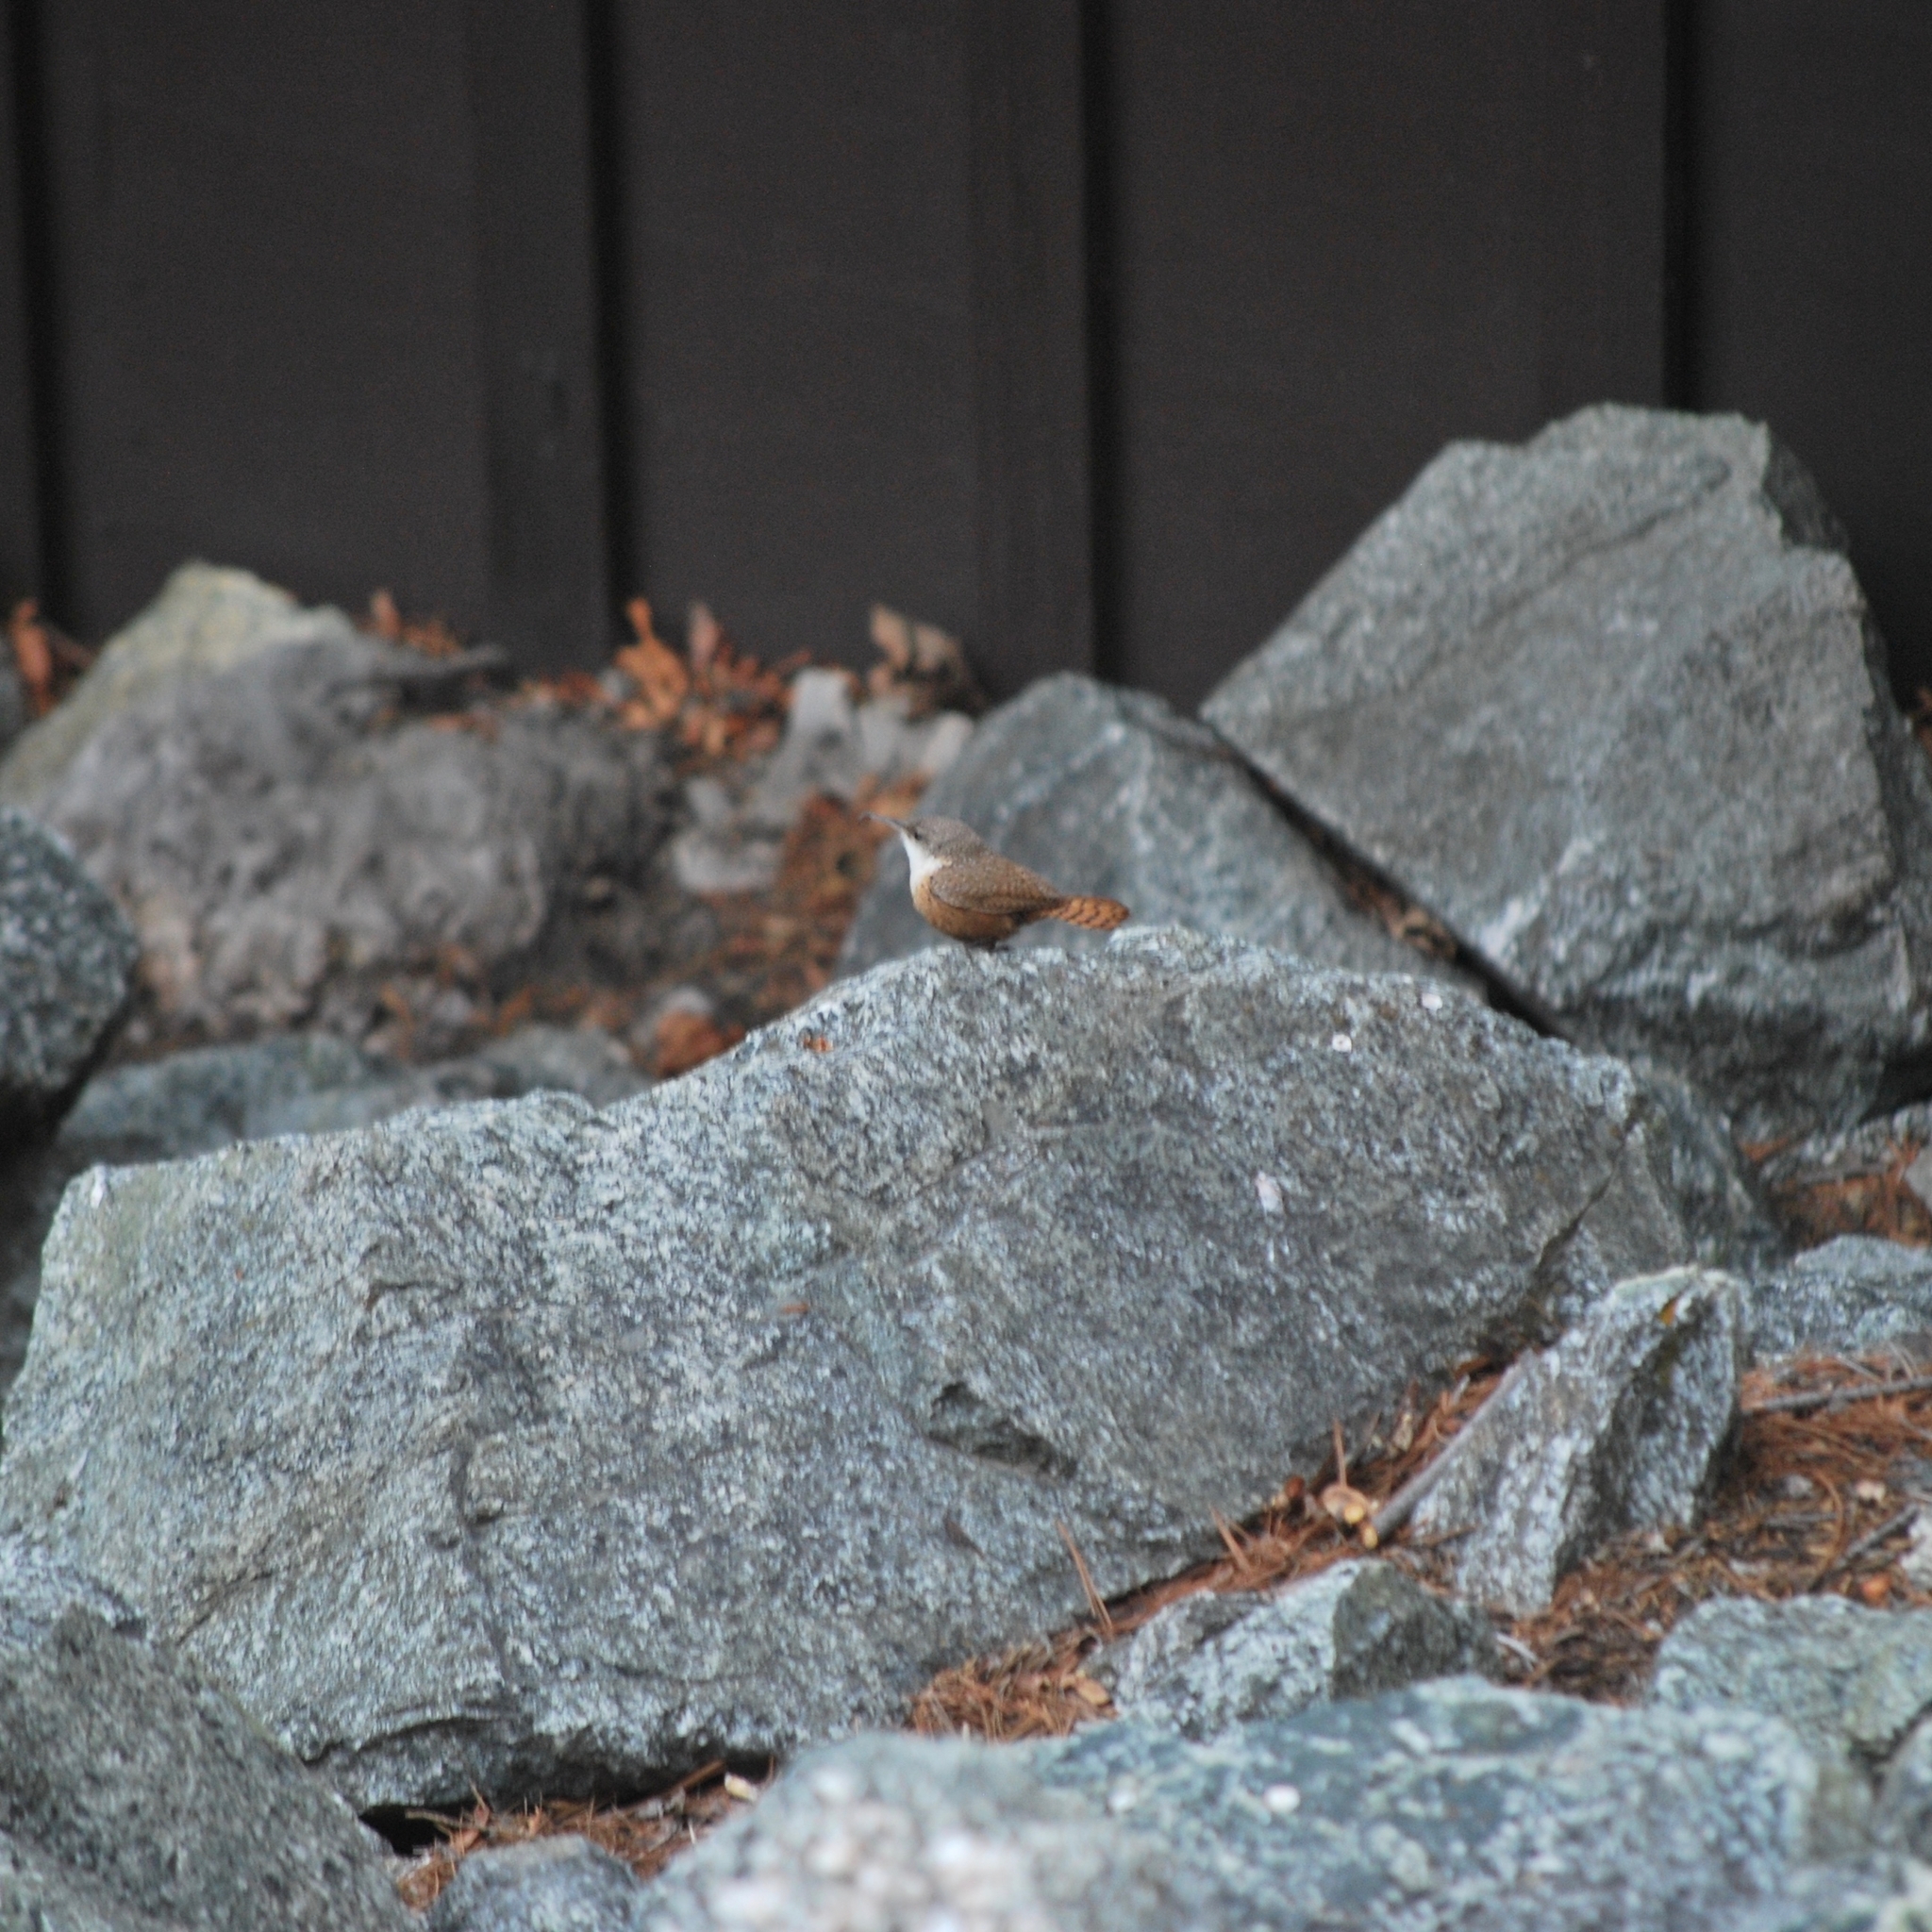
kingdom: Animalia
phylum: Chordata
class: Aves
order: Passeriformes
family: Troglodytidae
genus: Catherpes
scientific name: Catherpes mexicanus
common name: Canyon wren
